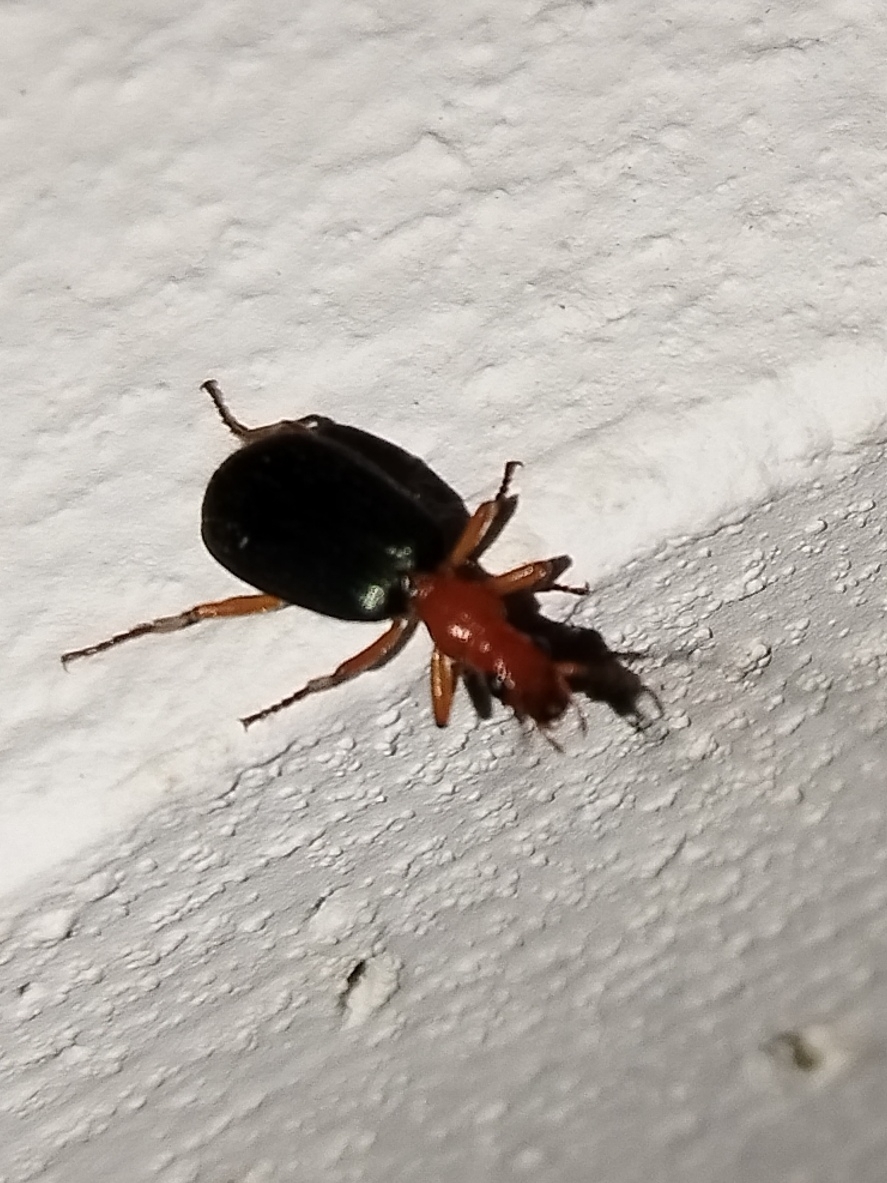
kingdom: Animalia
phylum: Arthropoda
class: Insecta
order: Coleoptera
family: Carabidae
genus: Brachinus
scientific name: Brachinus crepitans
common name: Bombadier beetle
